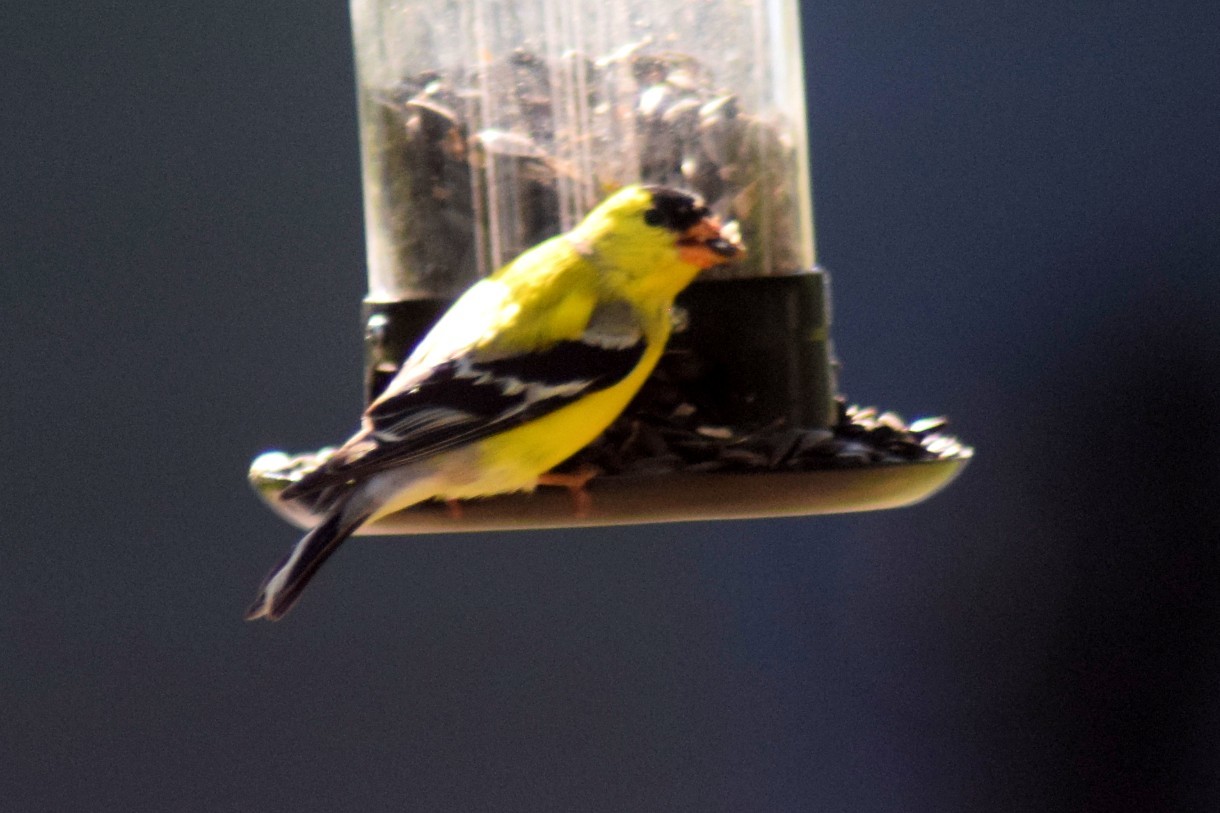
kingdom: Animalia
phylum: Chordata
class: Aves
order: Passeriformes
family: Fringillidae
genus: Spinus
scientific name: Spinus tristis
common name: American goldfinch
